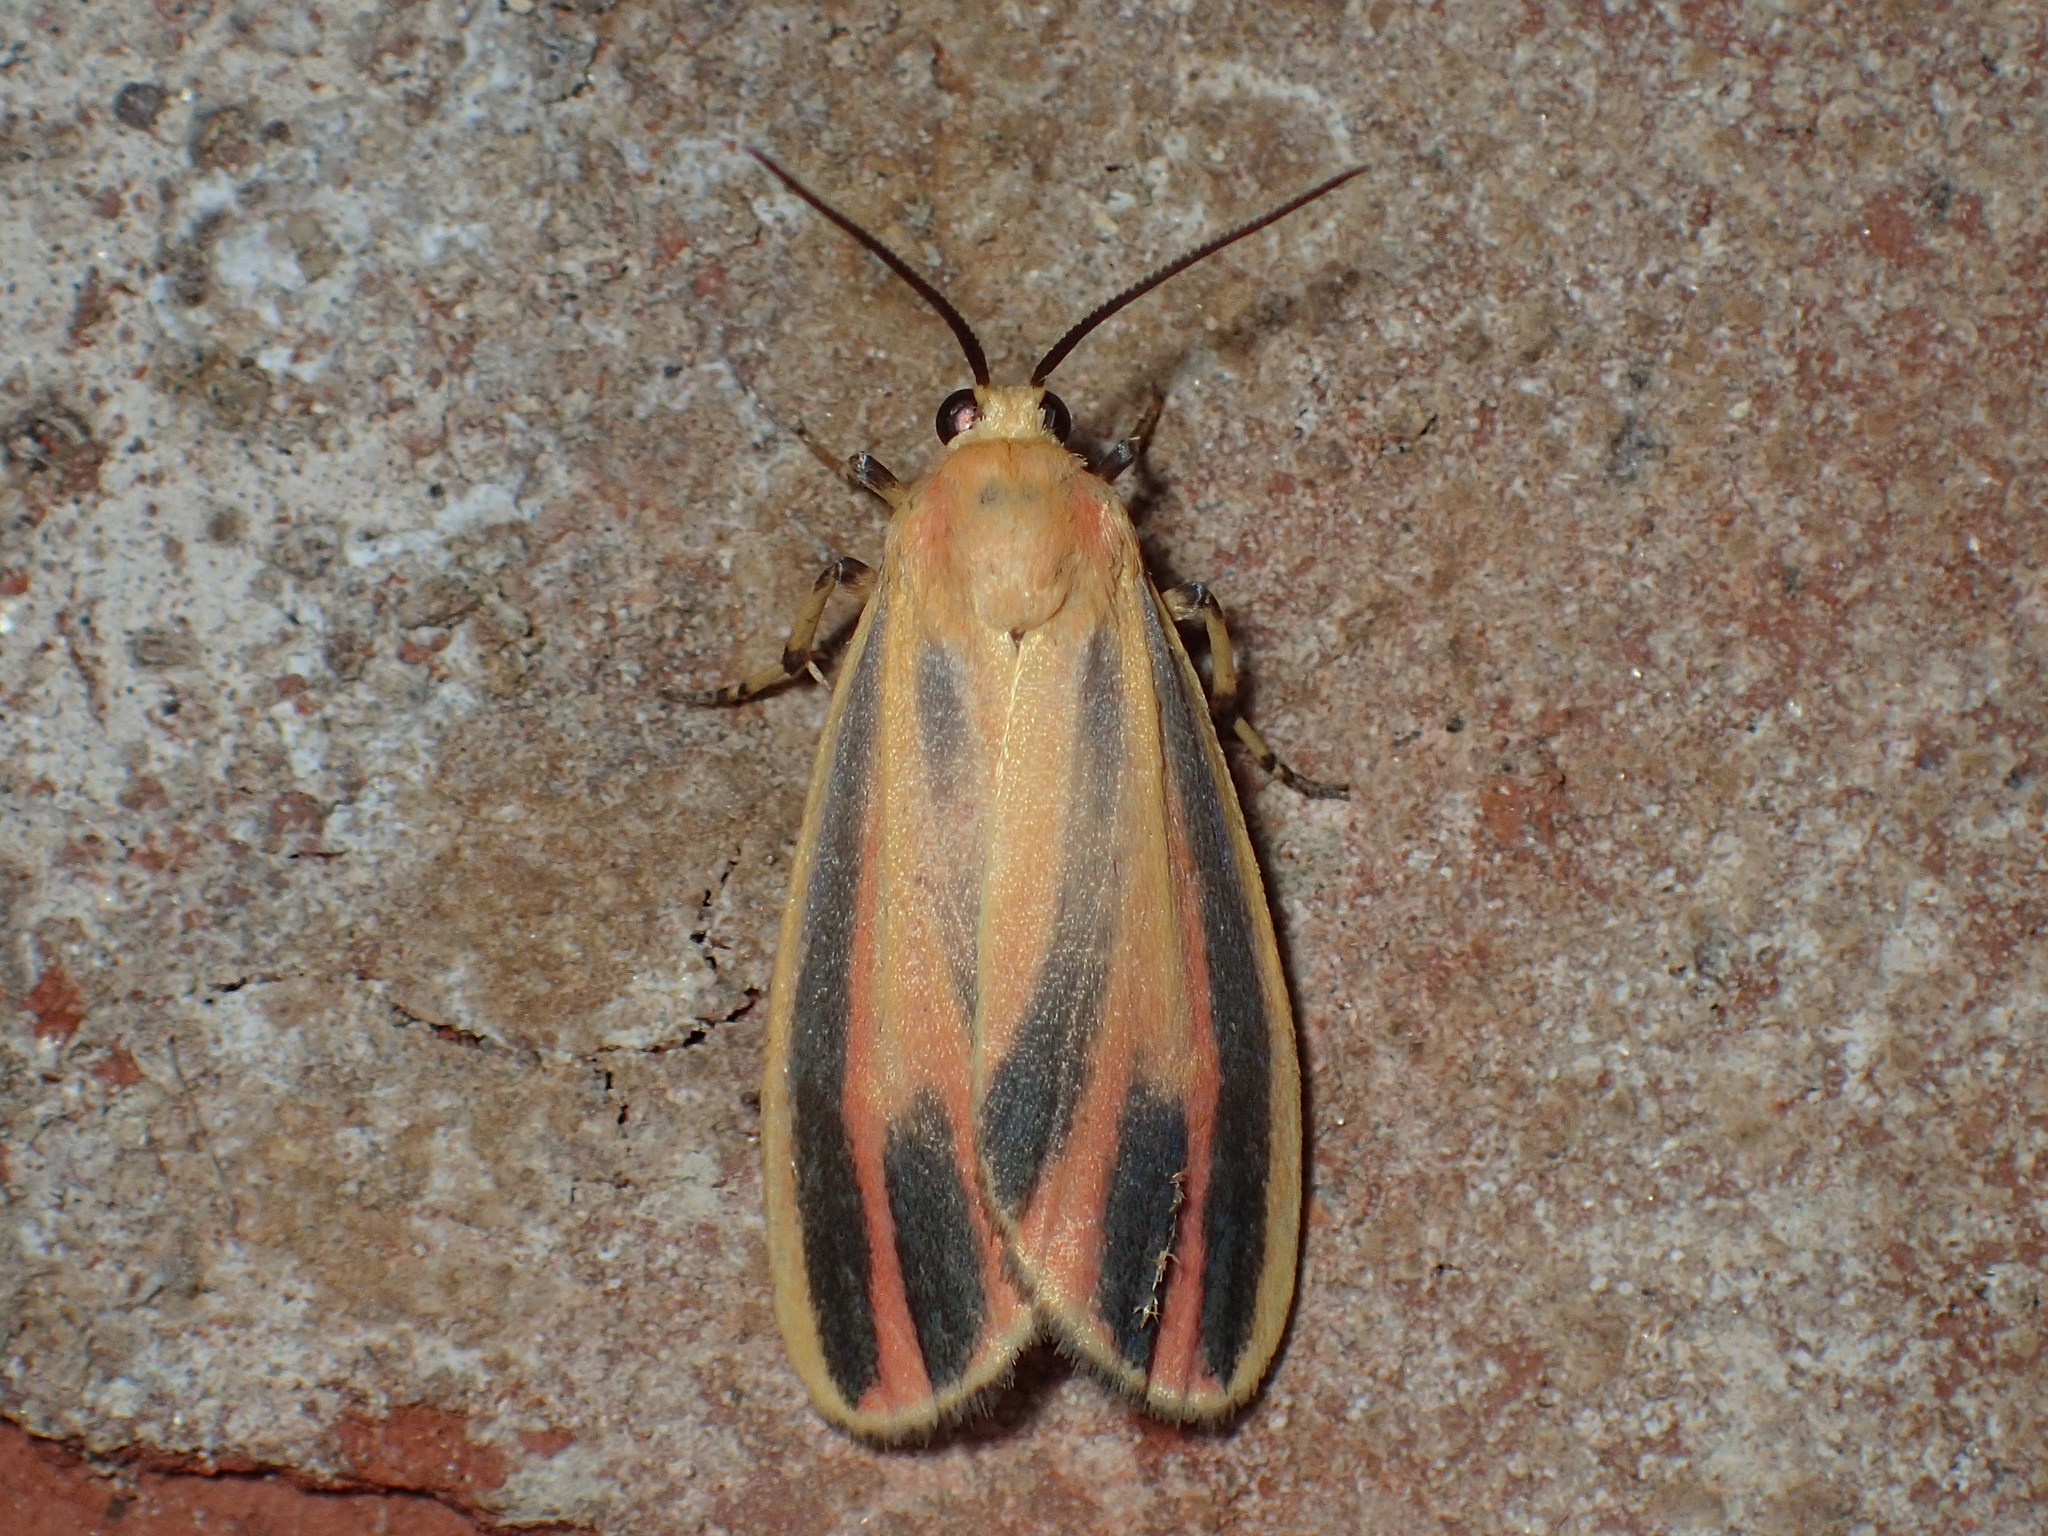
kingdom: Animalia
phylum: Arthropoda
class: Insecta
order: Lepidoptera
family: Erebidae
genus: Hypoprepia
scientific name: Hypoprepia fucosa
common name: Painted lichen moth
